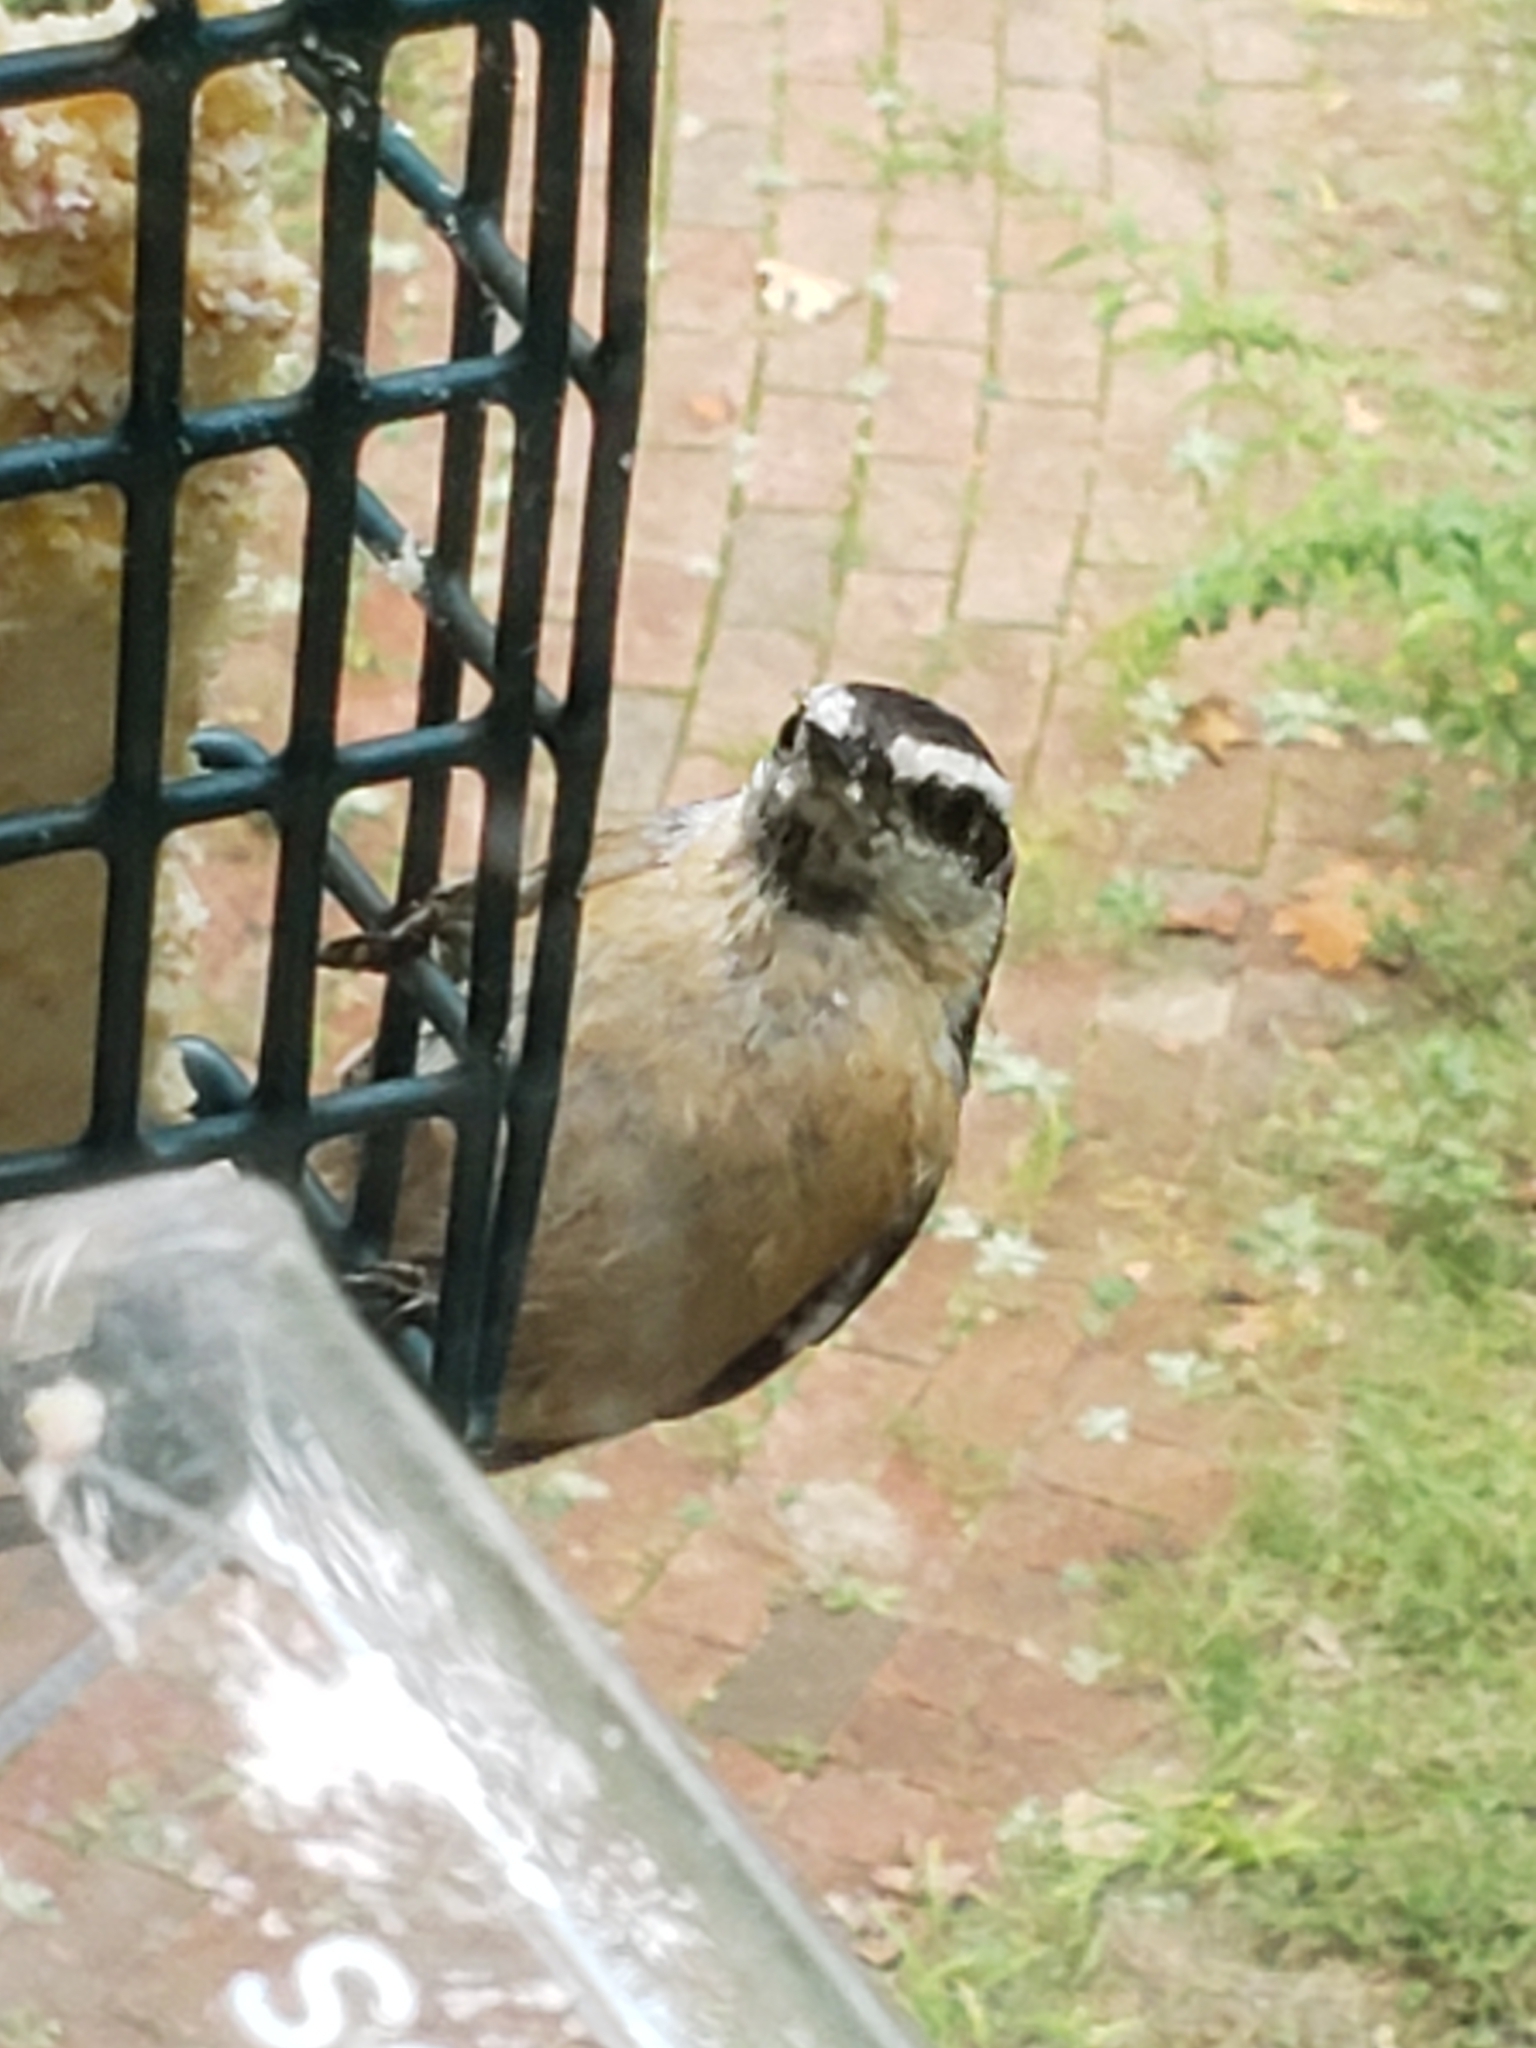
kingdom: Animalia
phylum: Chordata
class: Aves
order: Passeriformes
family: Sittidae
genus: Sitta
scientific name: Sitta canadensis
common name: Red-breasted nuthatch
